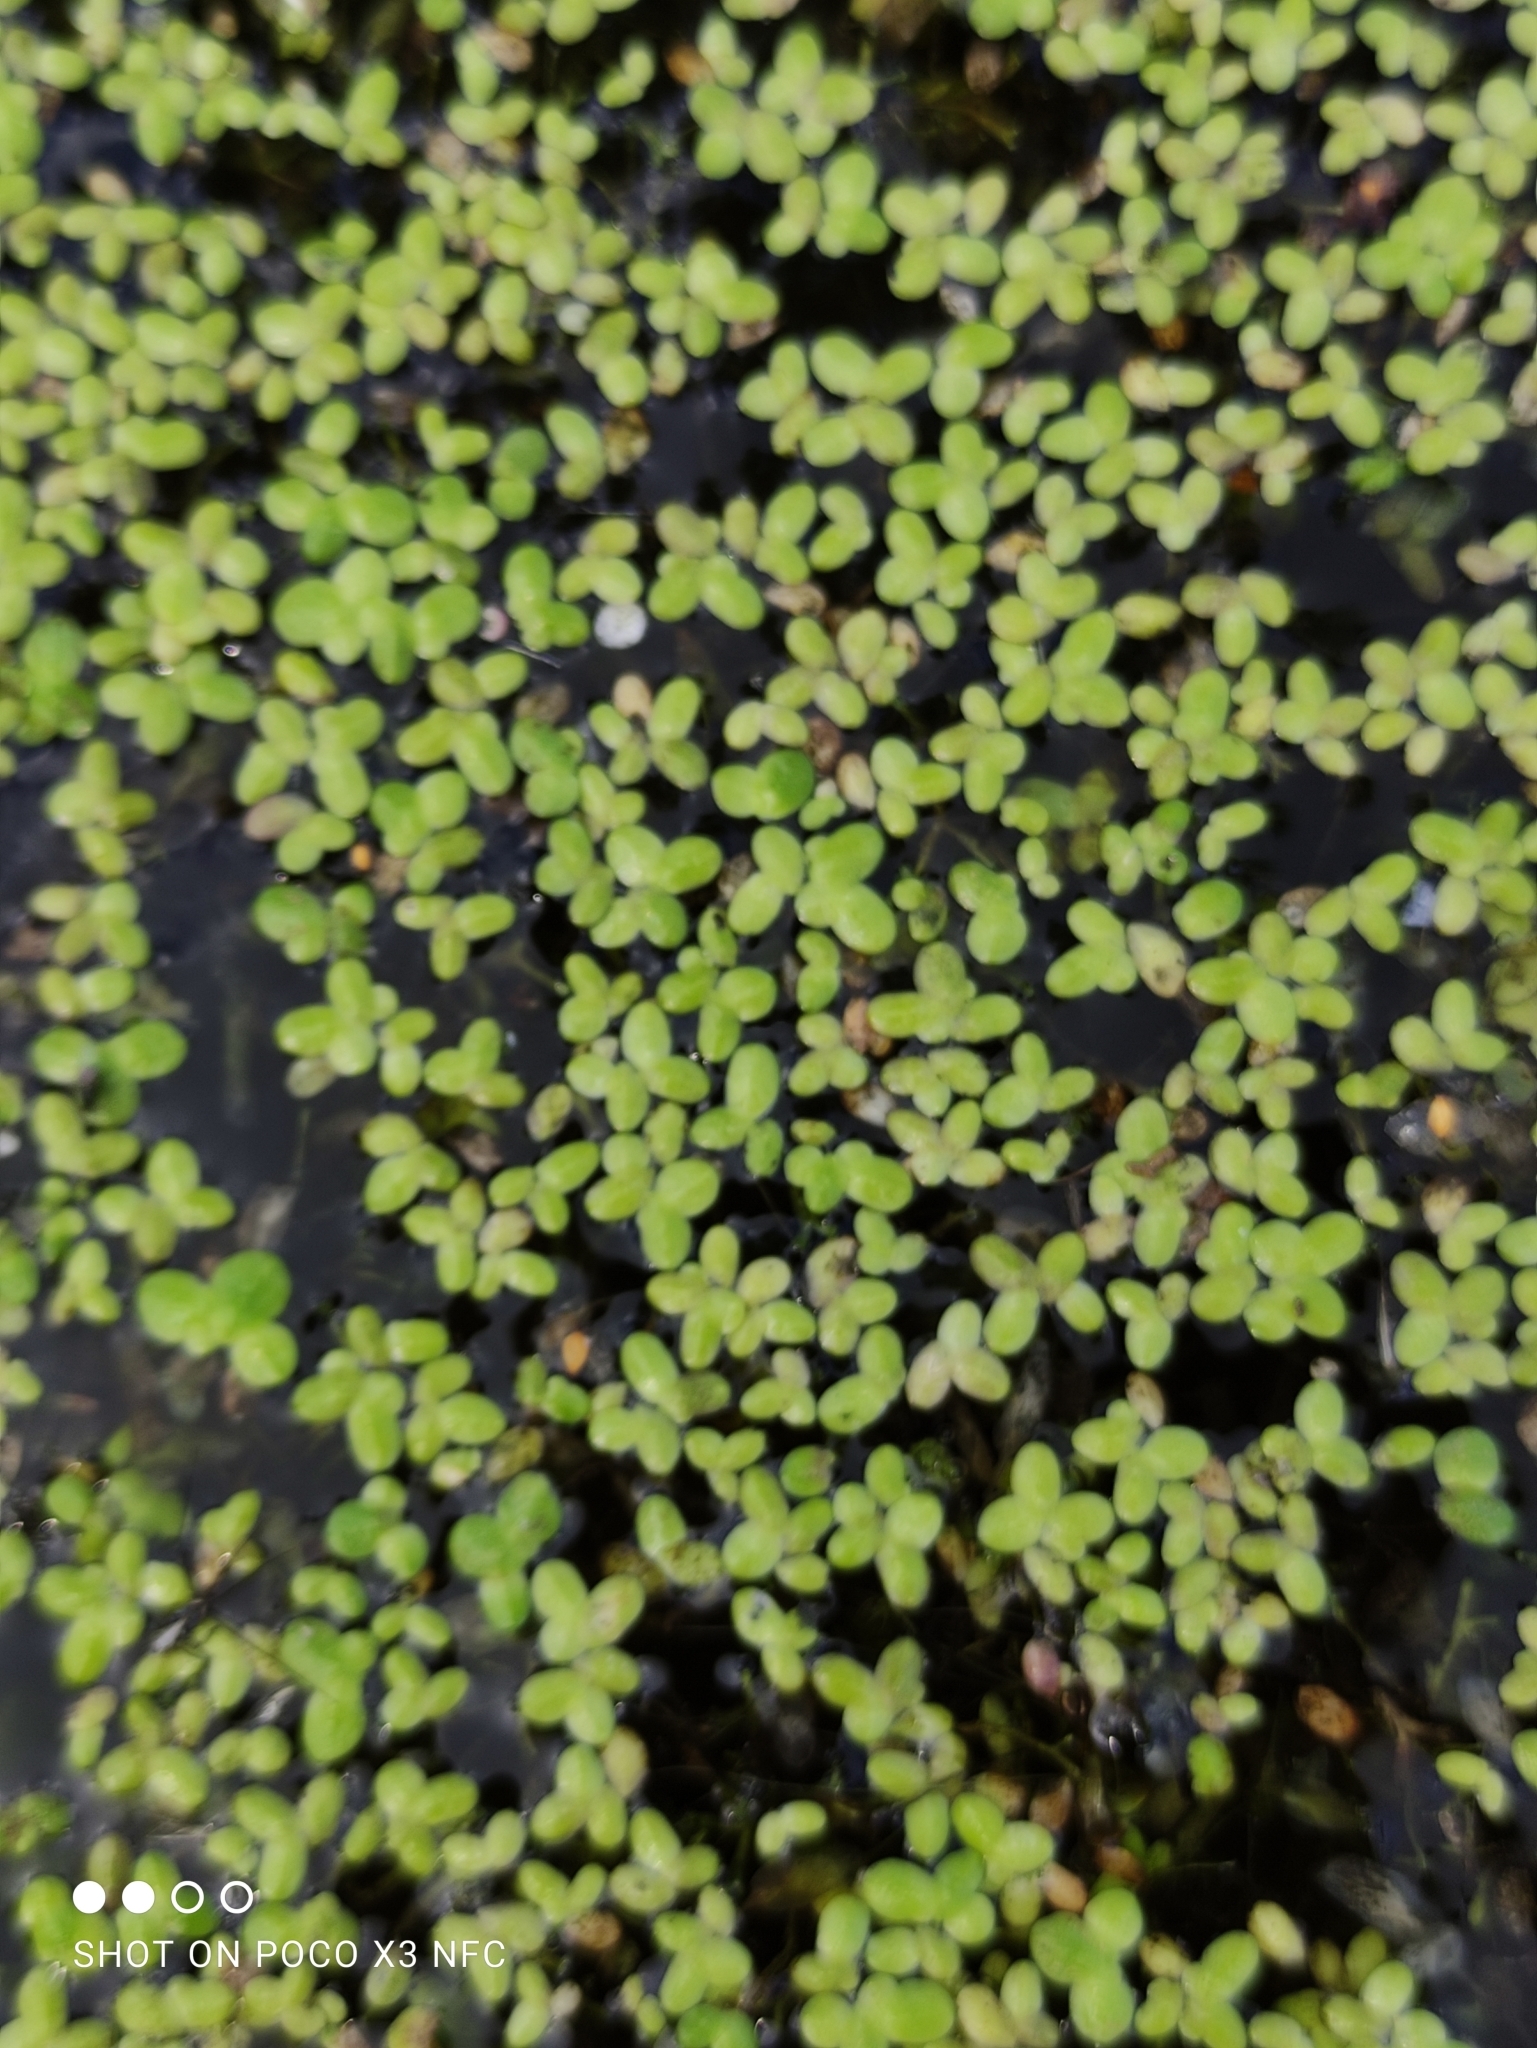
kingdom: Plantae
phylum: Tracheophyta
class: Liliopsida
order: Alismatales
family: Araceae
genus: Lemna
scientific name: Lemna minor
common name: Common duckweed
